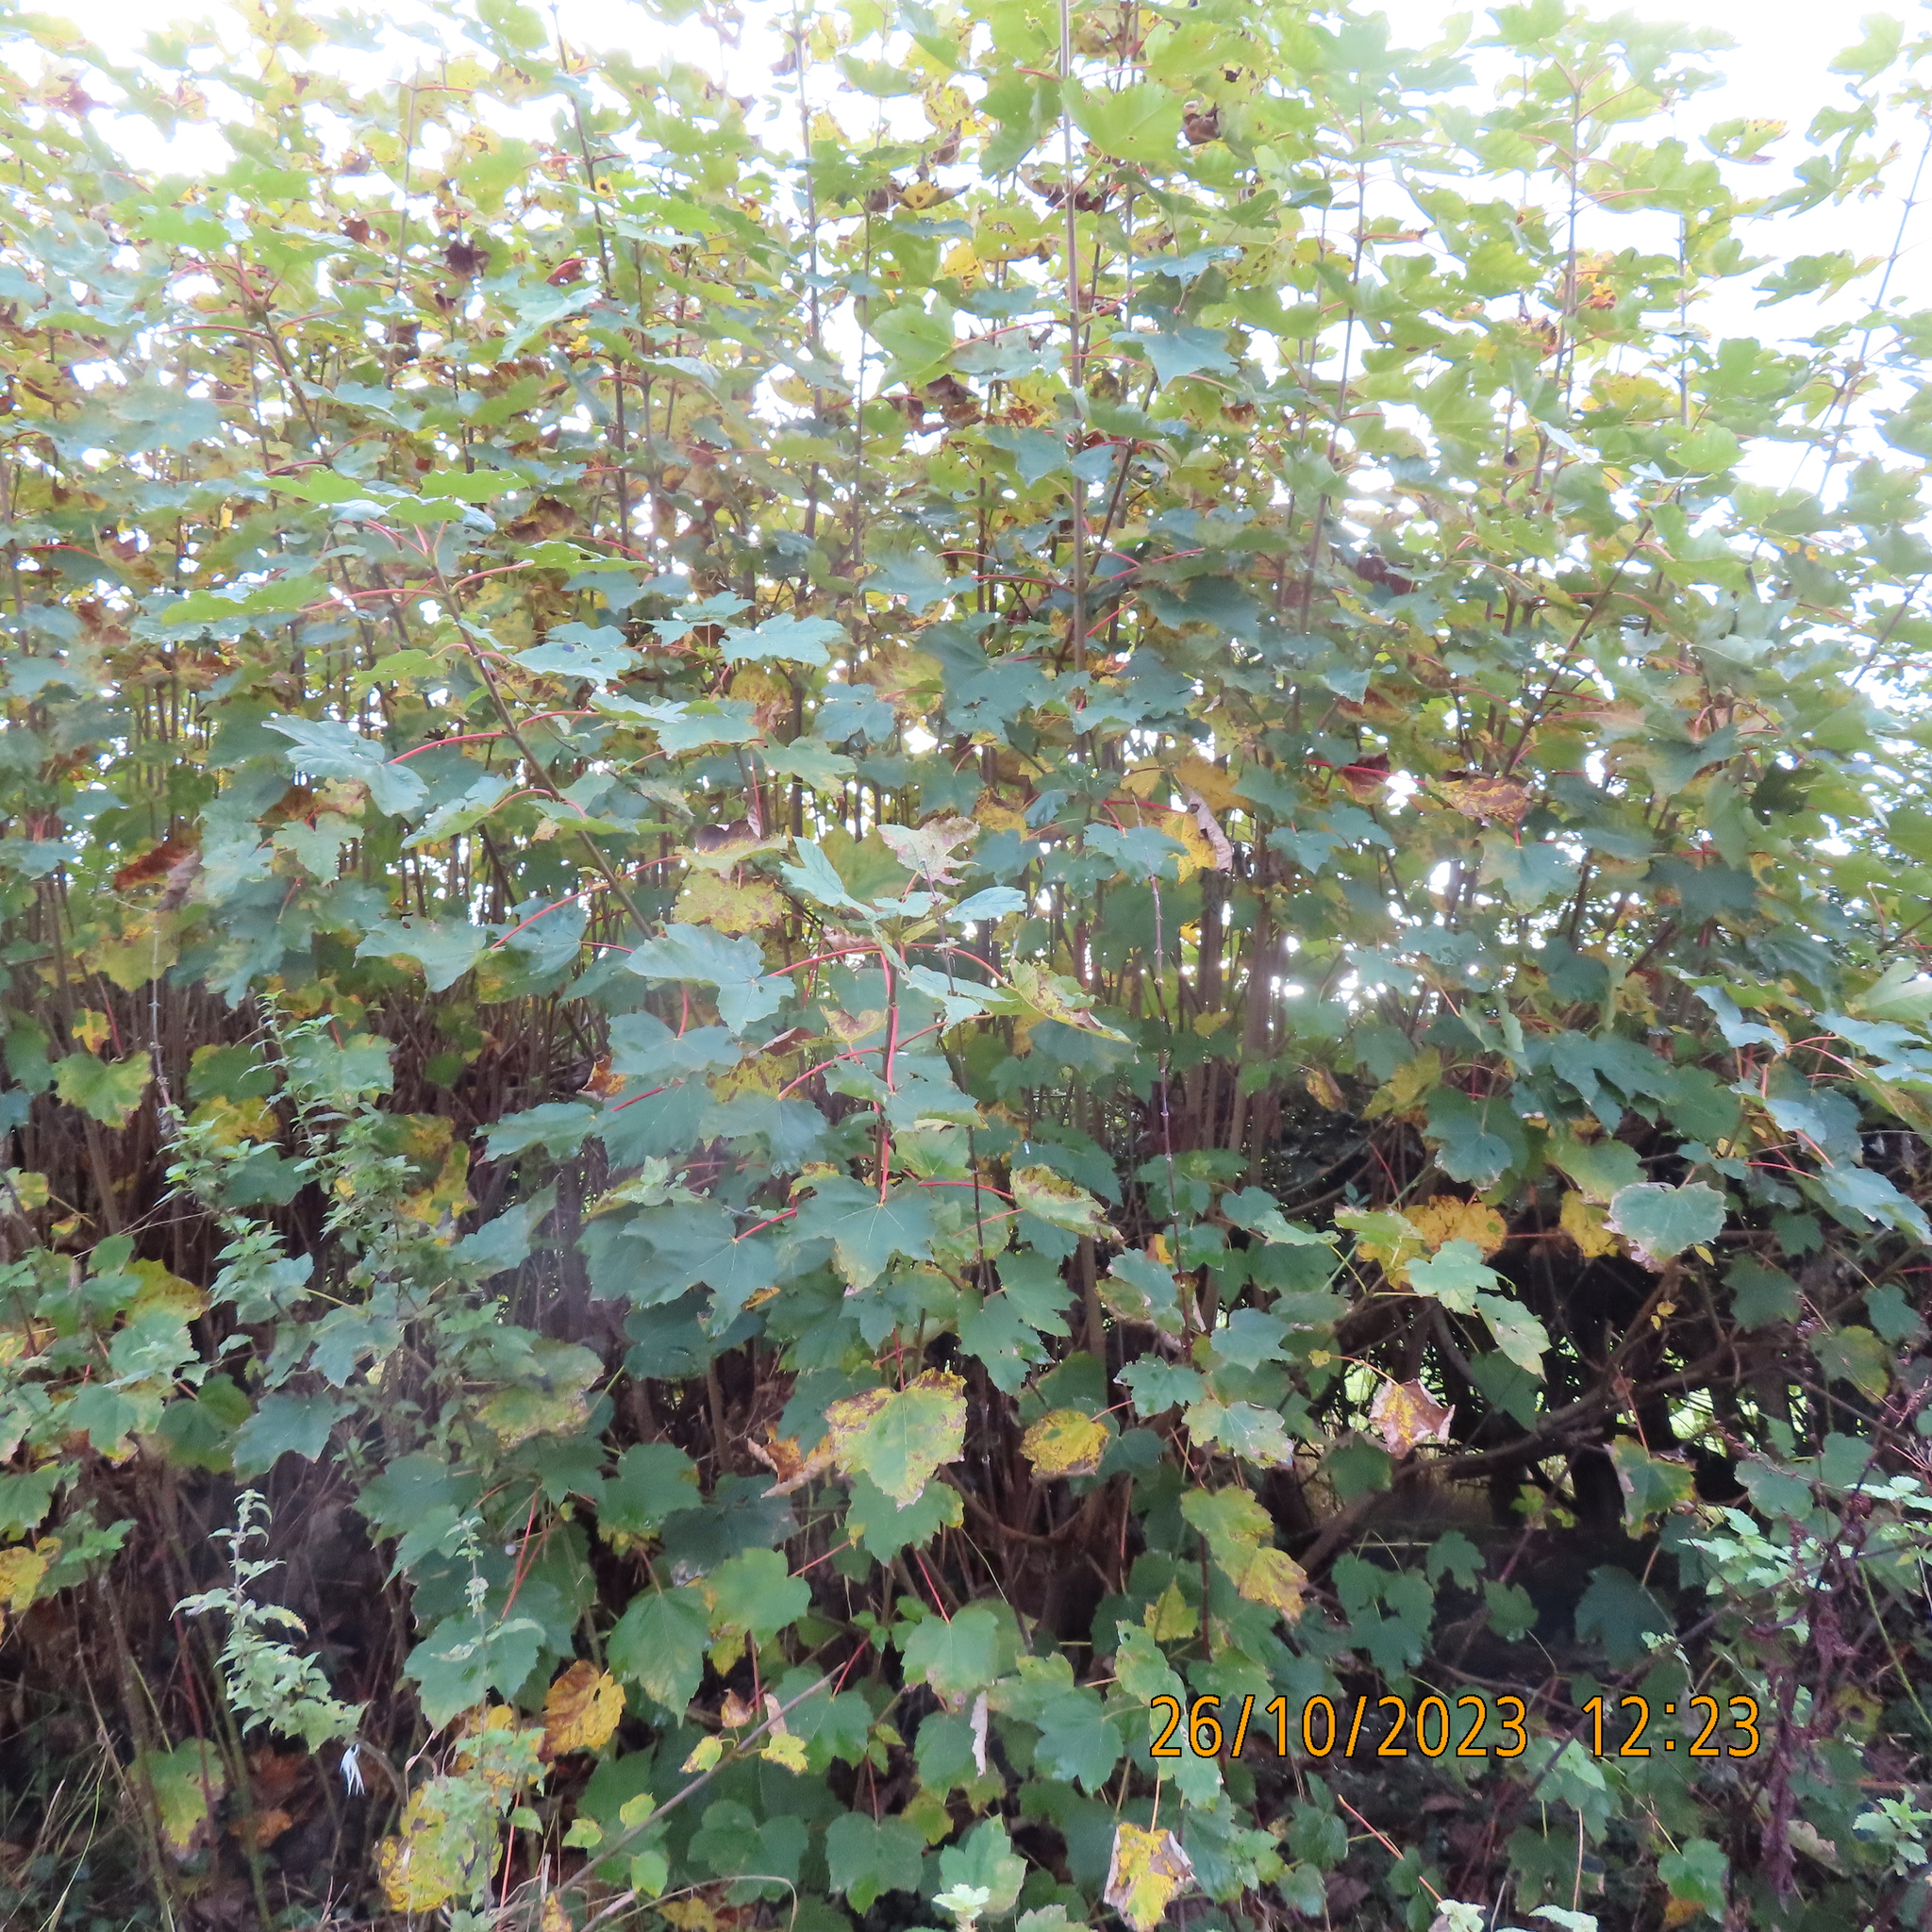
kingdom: Plantae
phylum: Tracheophyta
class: Magnoliopsida
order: Sapindales
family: Sapindaceae
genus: Acer
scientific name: Acer pseudoplatanus
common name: Sycamore
